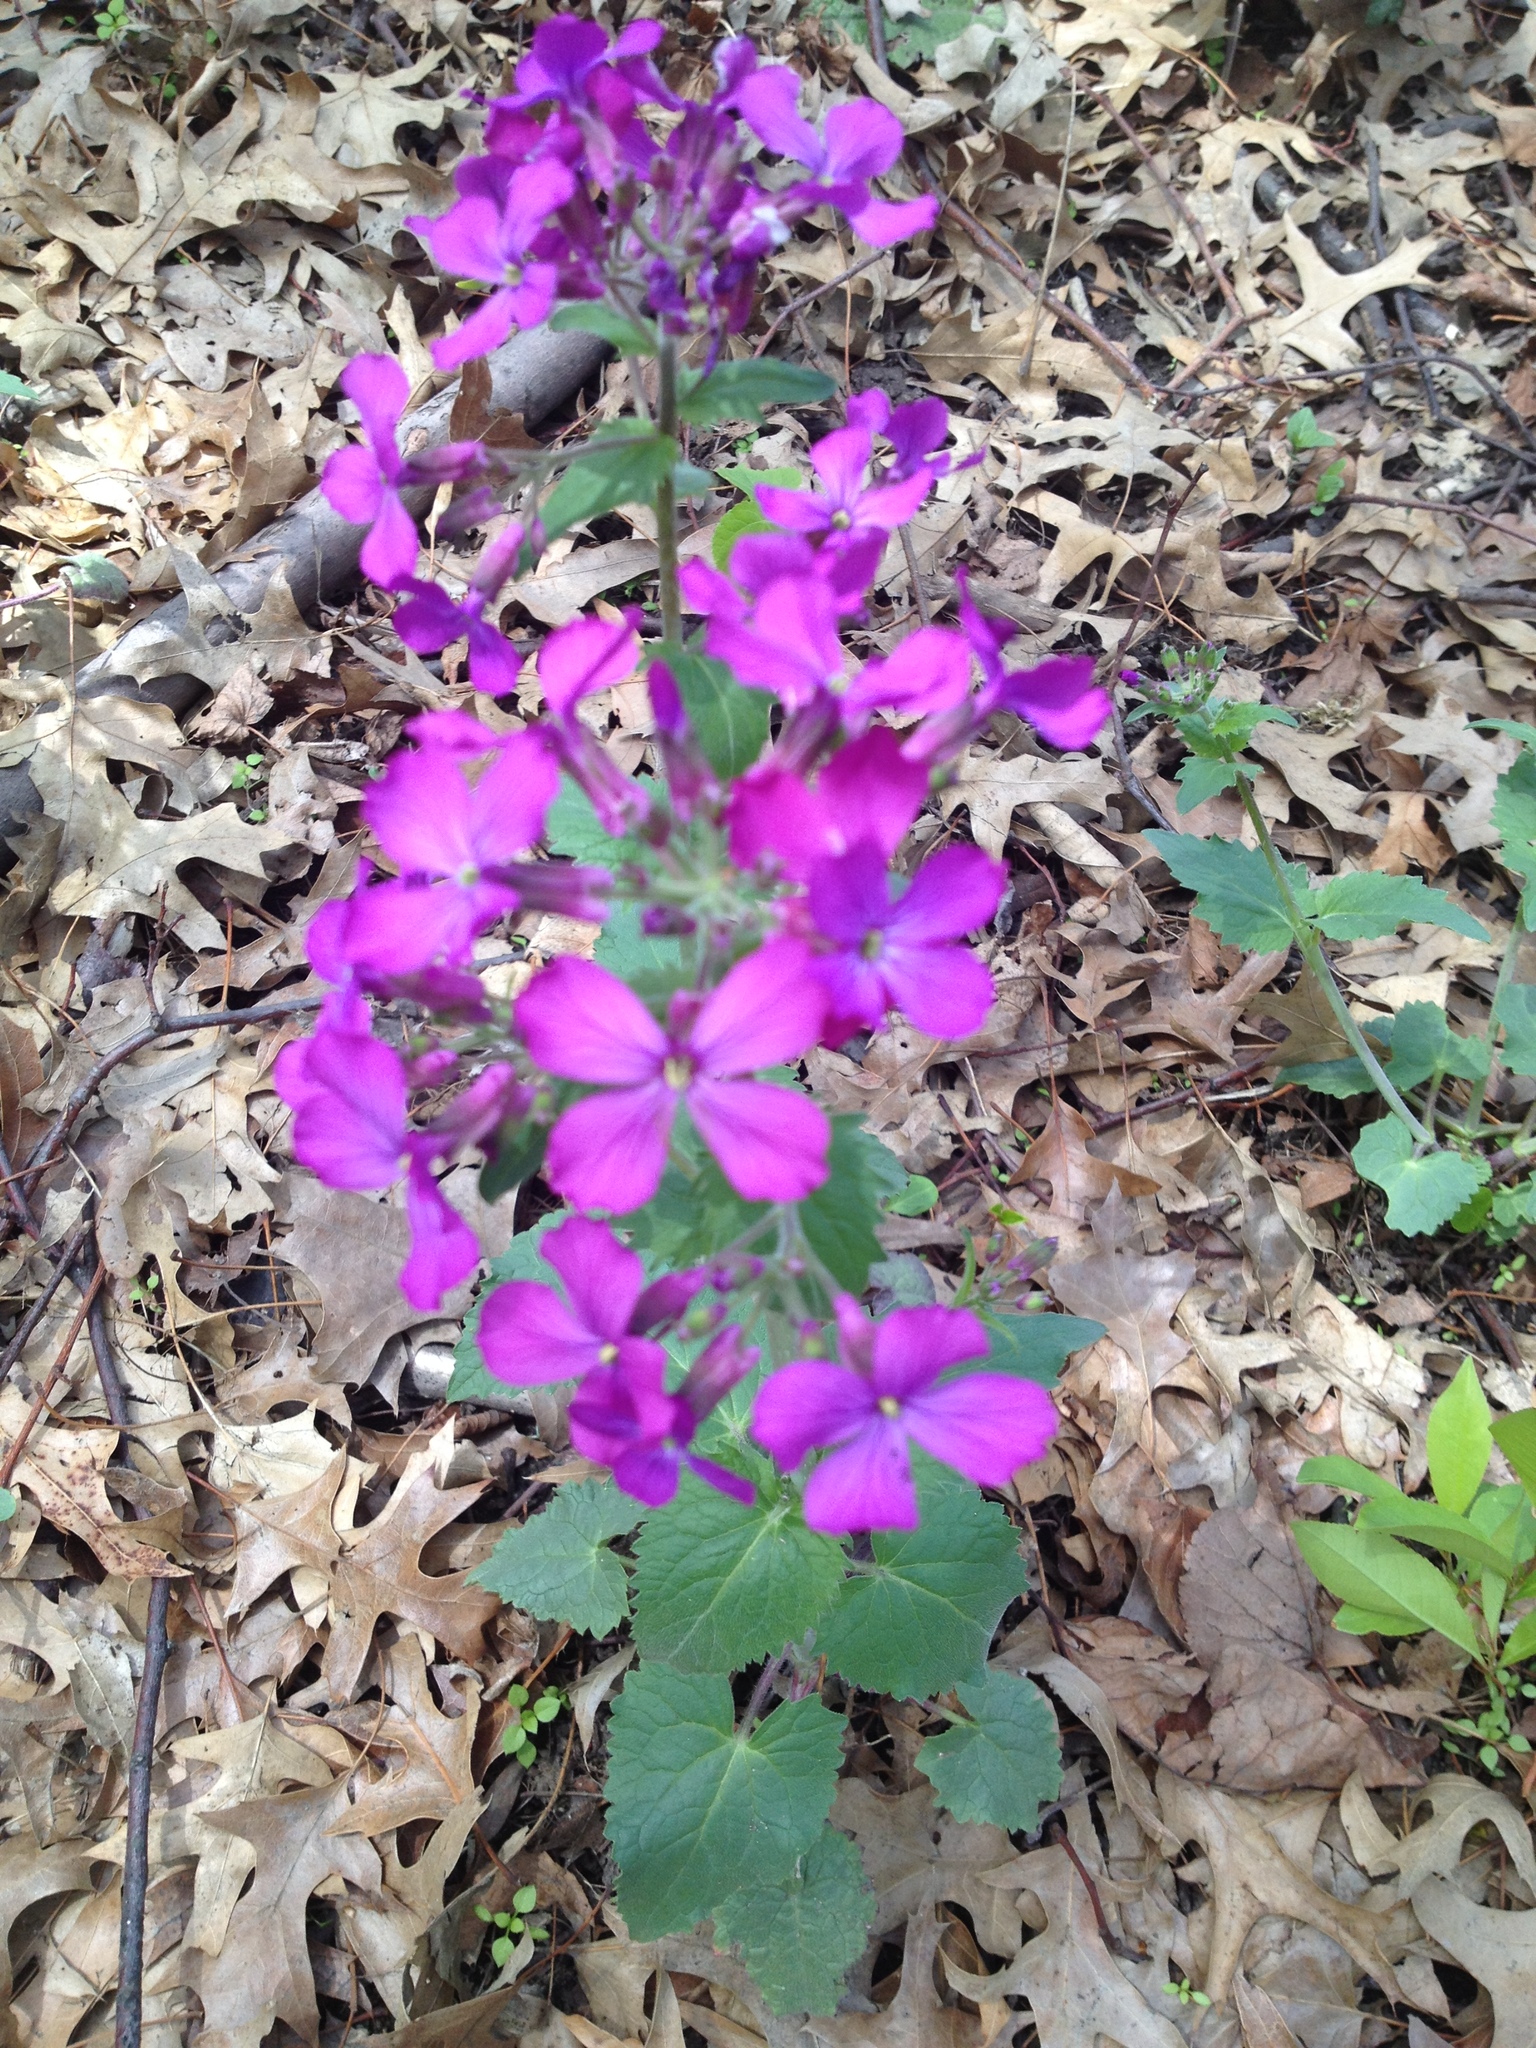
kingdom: Plantae
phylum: Tracheophyta
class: Magnoliopsida
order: Brassicales
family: Brassicaceae
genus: Lunaria
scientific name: Lunaria annua
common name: Honesty
